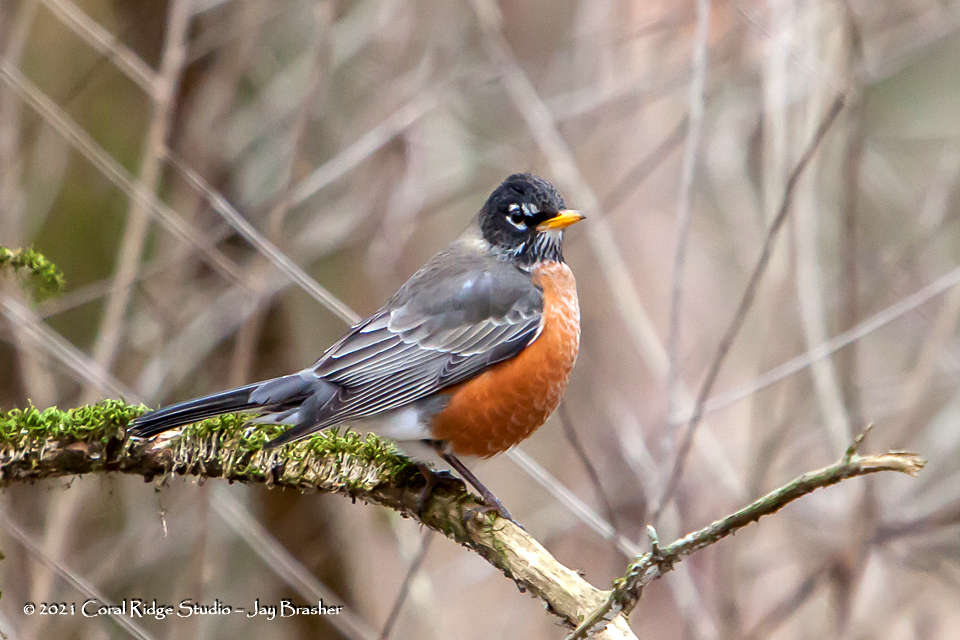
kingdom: Animalia
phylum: Chordata
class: Aves
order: Passeriformes
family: Turdidae
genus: Turdus
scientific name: Turdus migratorius
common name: American robin
